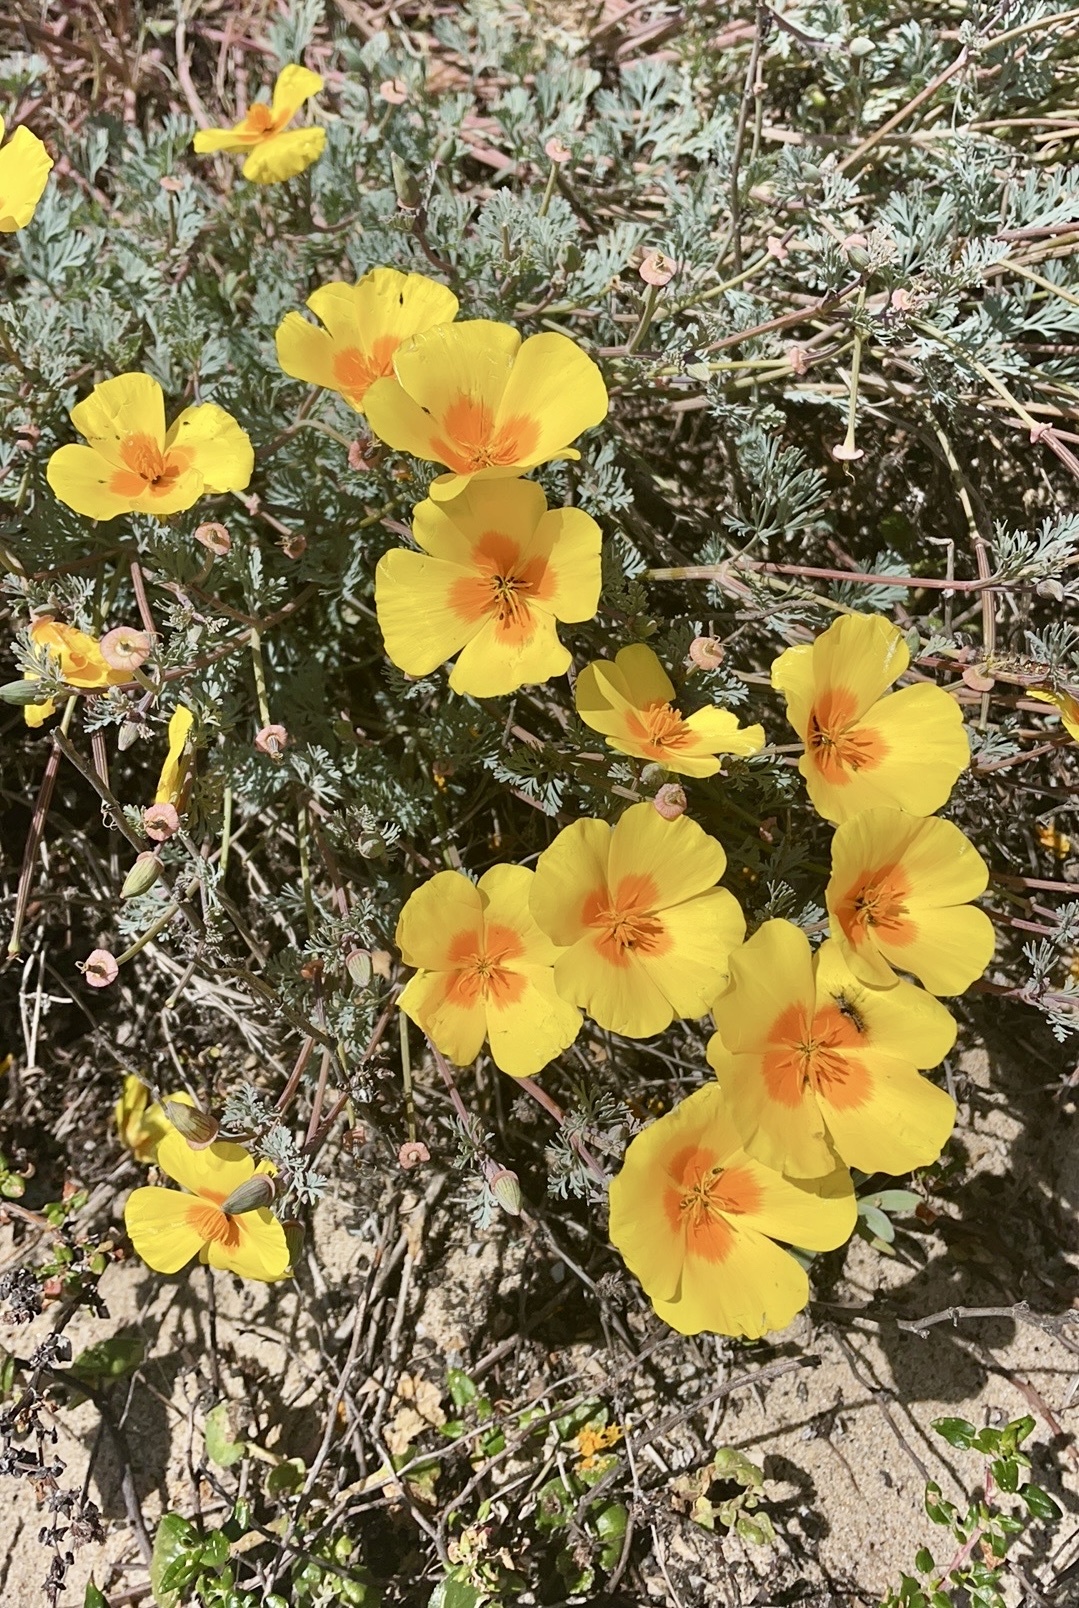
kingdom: Plantae
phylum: Tracheophyta
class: Magnoliopsida
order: Ranunculales
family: Papaveraceae
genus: Eschscholzia
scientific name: Eschscholzia californica
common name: California poppy
